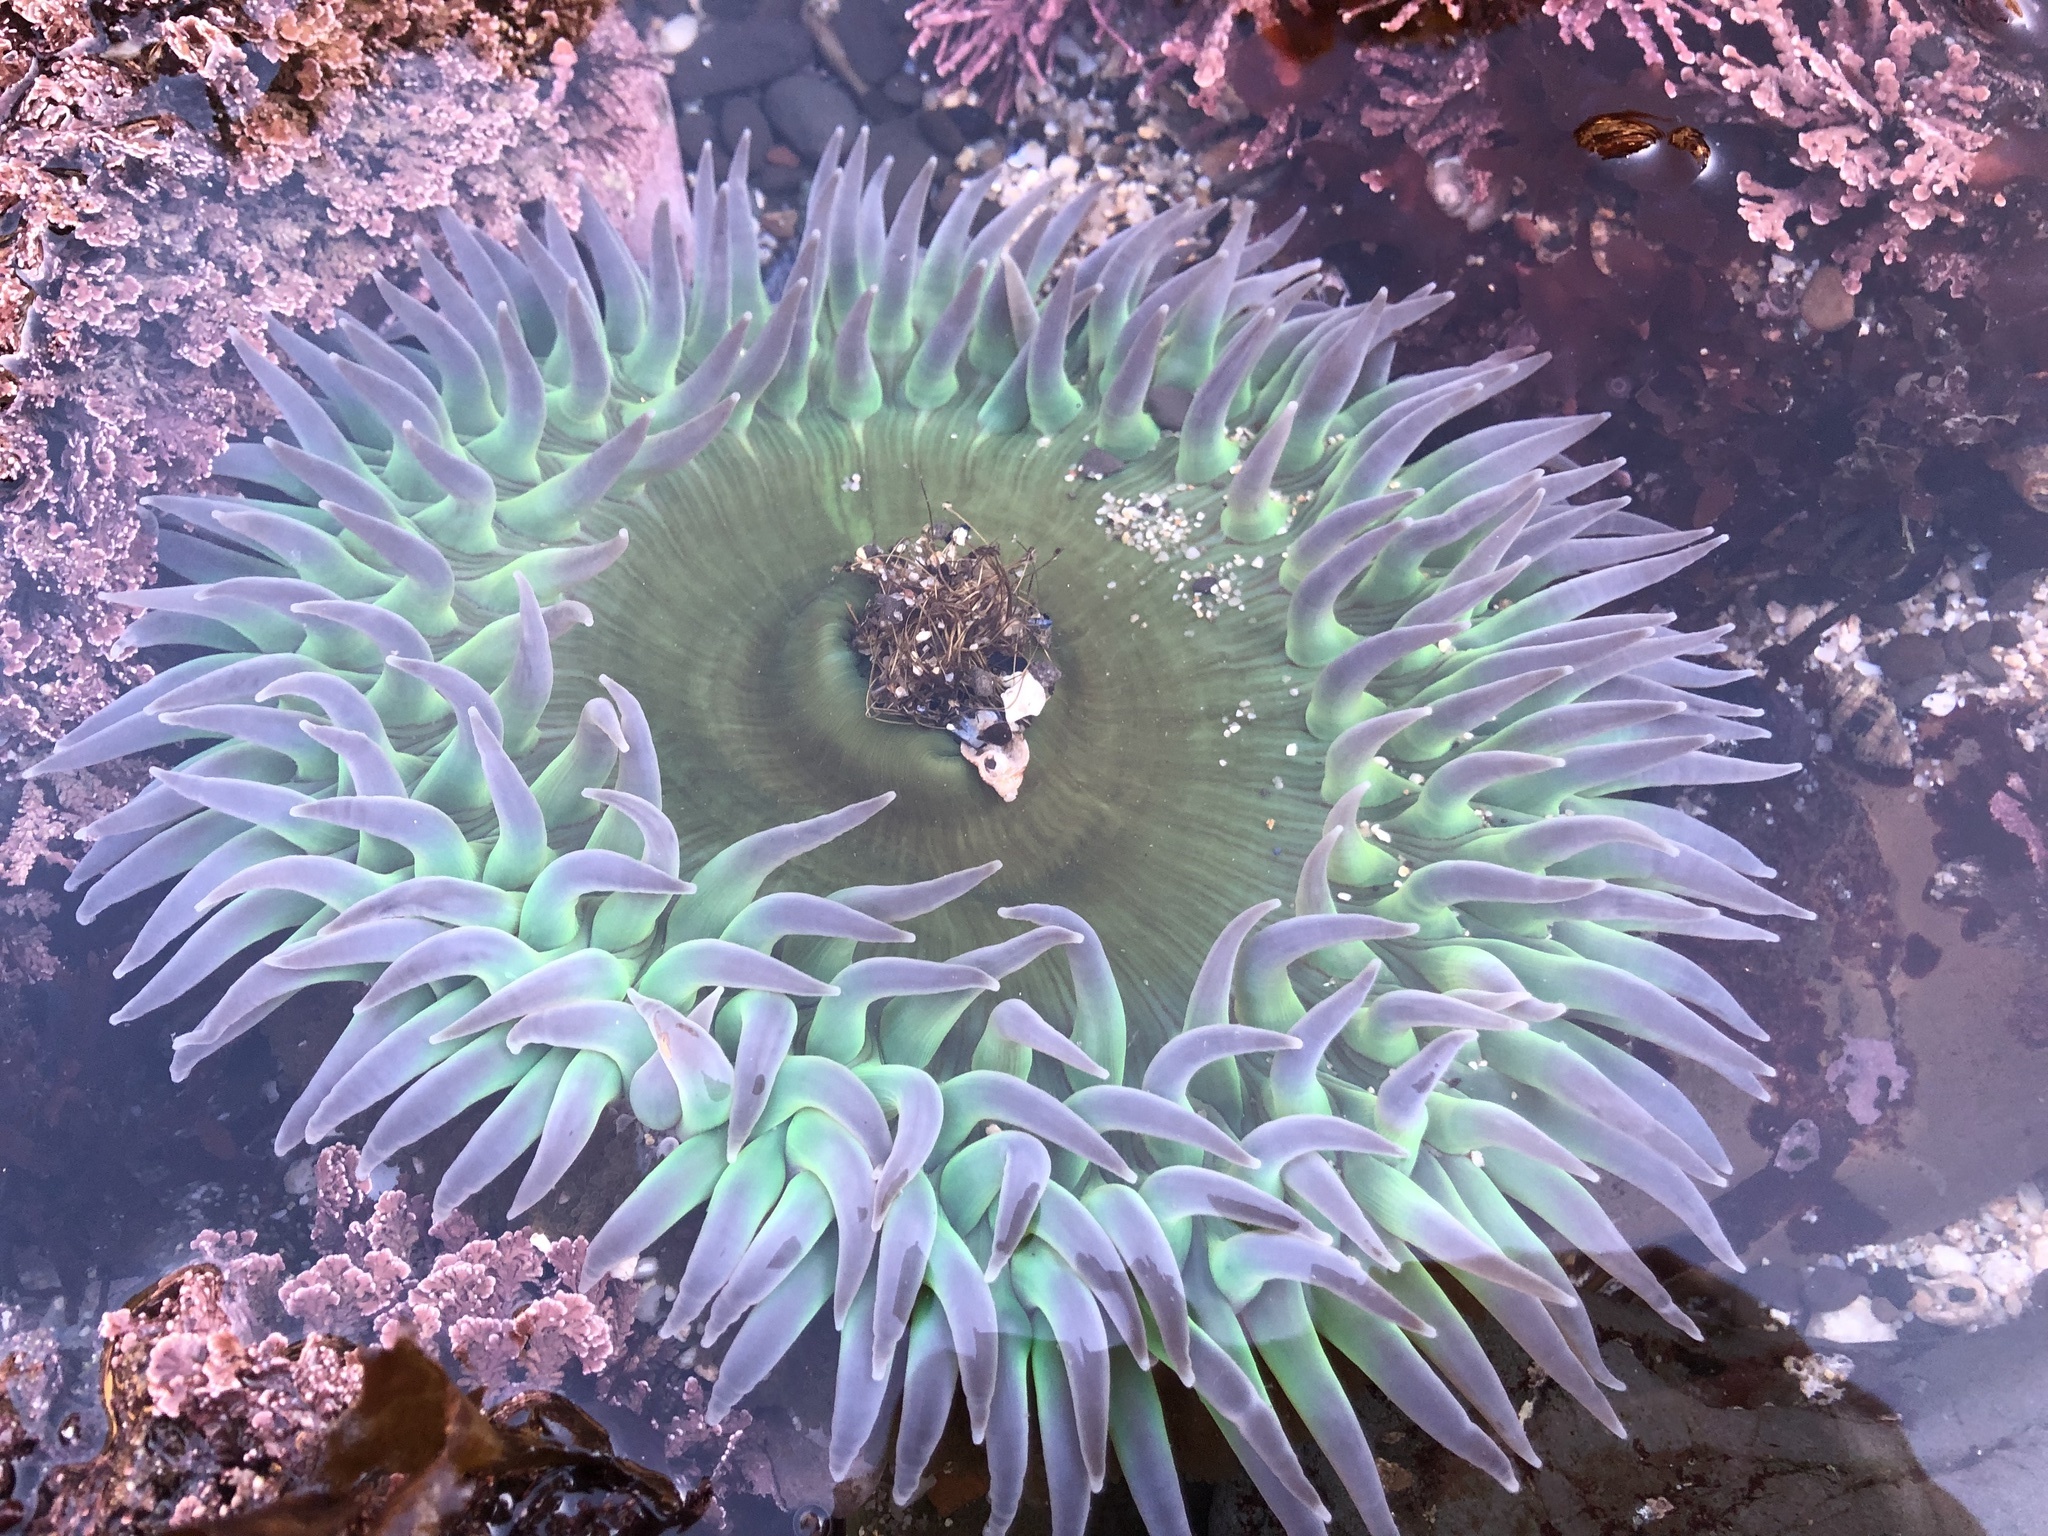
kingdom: Animalia
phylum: Cnidaria
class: Anthozoa
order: Actiniaria
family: Actiniidae
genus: Anthopleura
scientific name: Anthopleura xanthogrammica
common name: Giant green anemone
